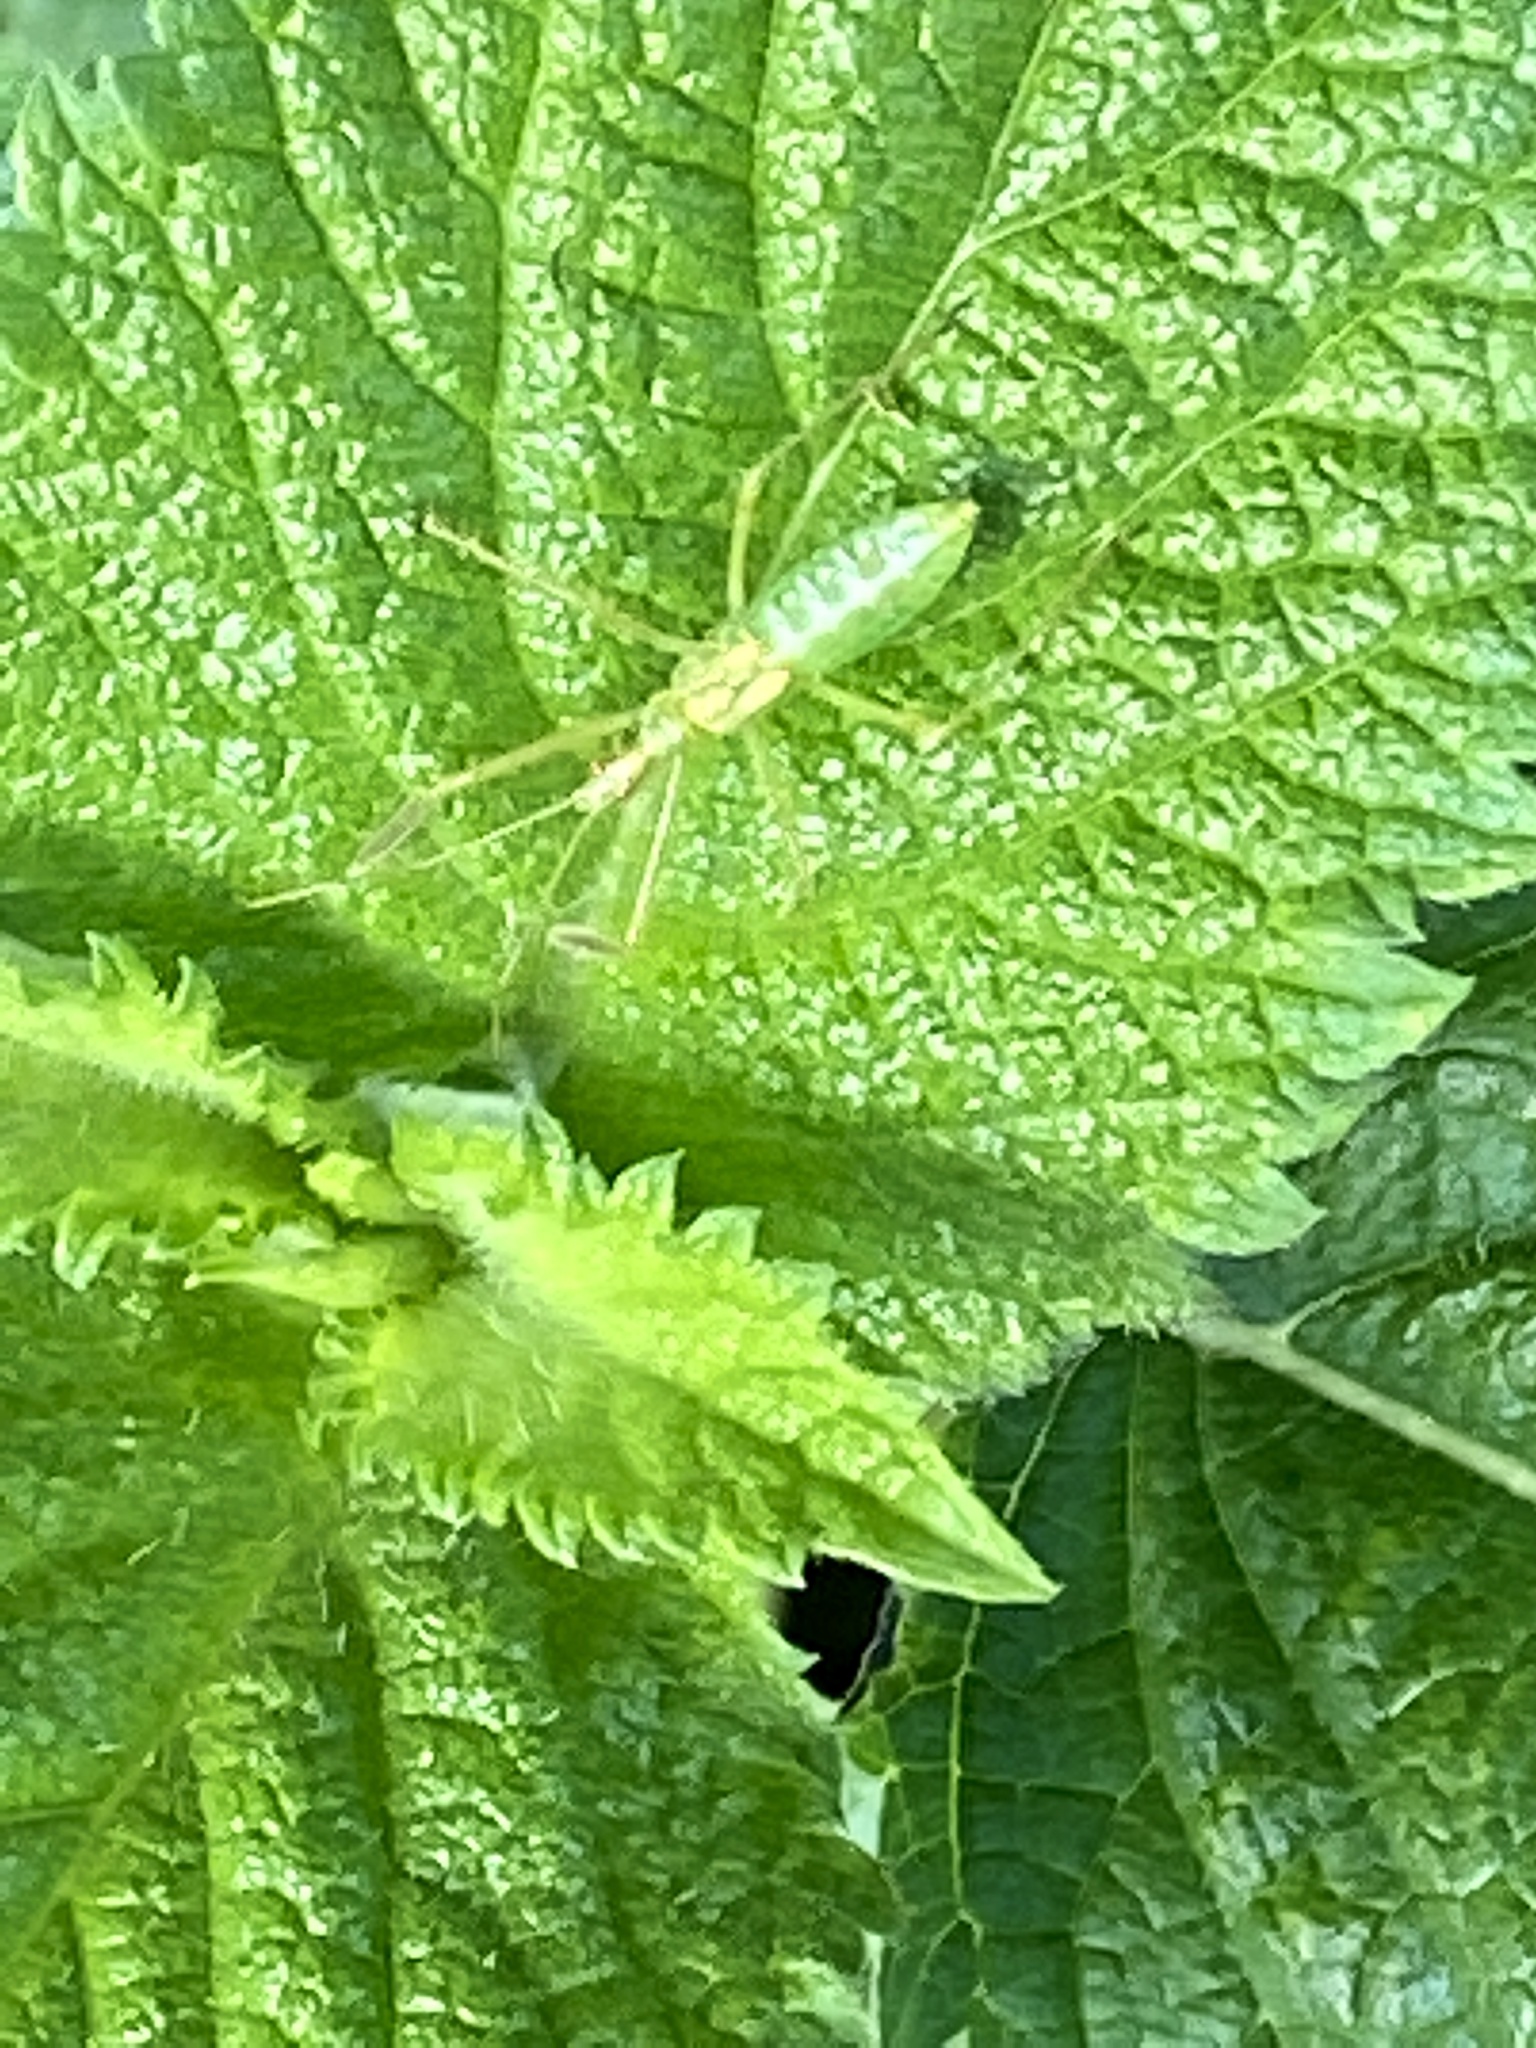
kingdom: Animalia
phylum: Arthropoda
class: Insecta
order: Hemiptera
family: Reduviidae
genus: Zelus
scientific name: Zelus luridus
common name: Pale green assassin bug
